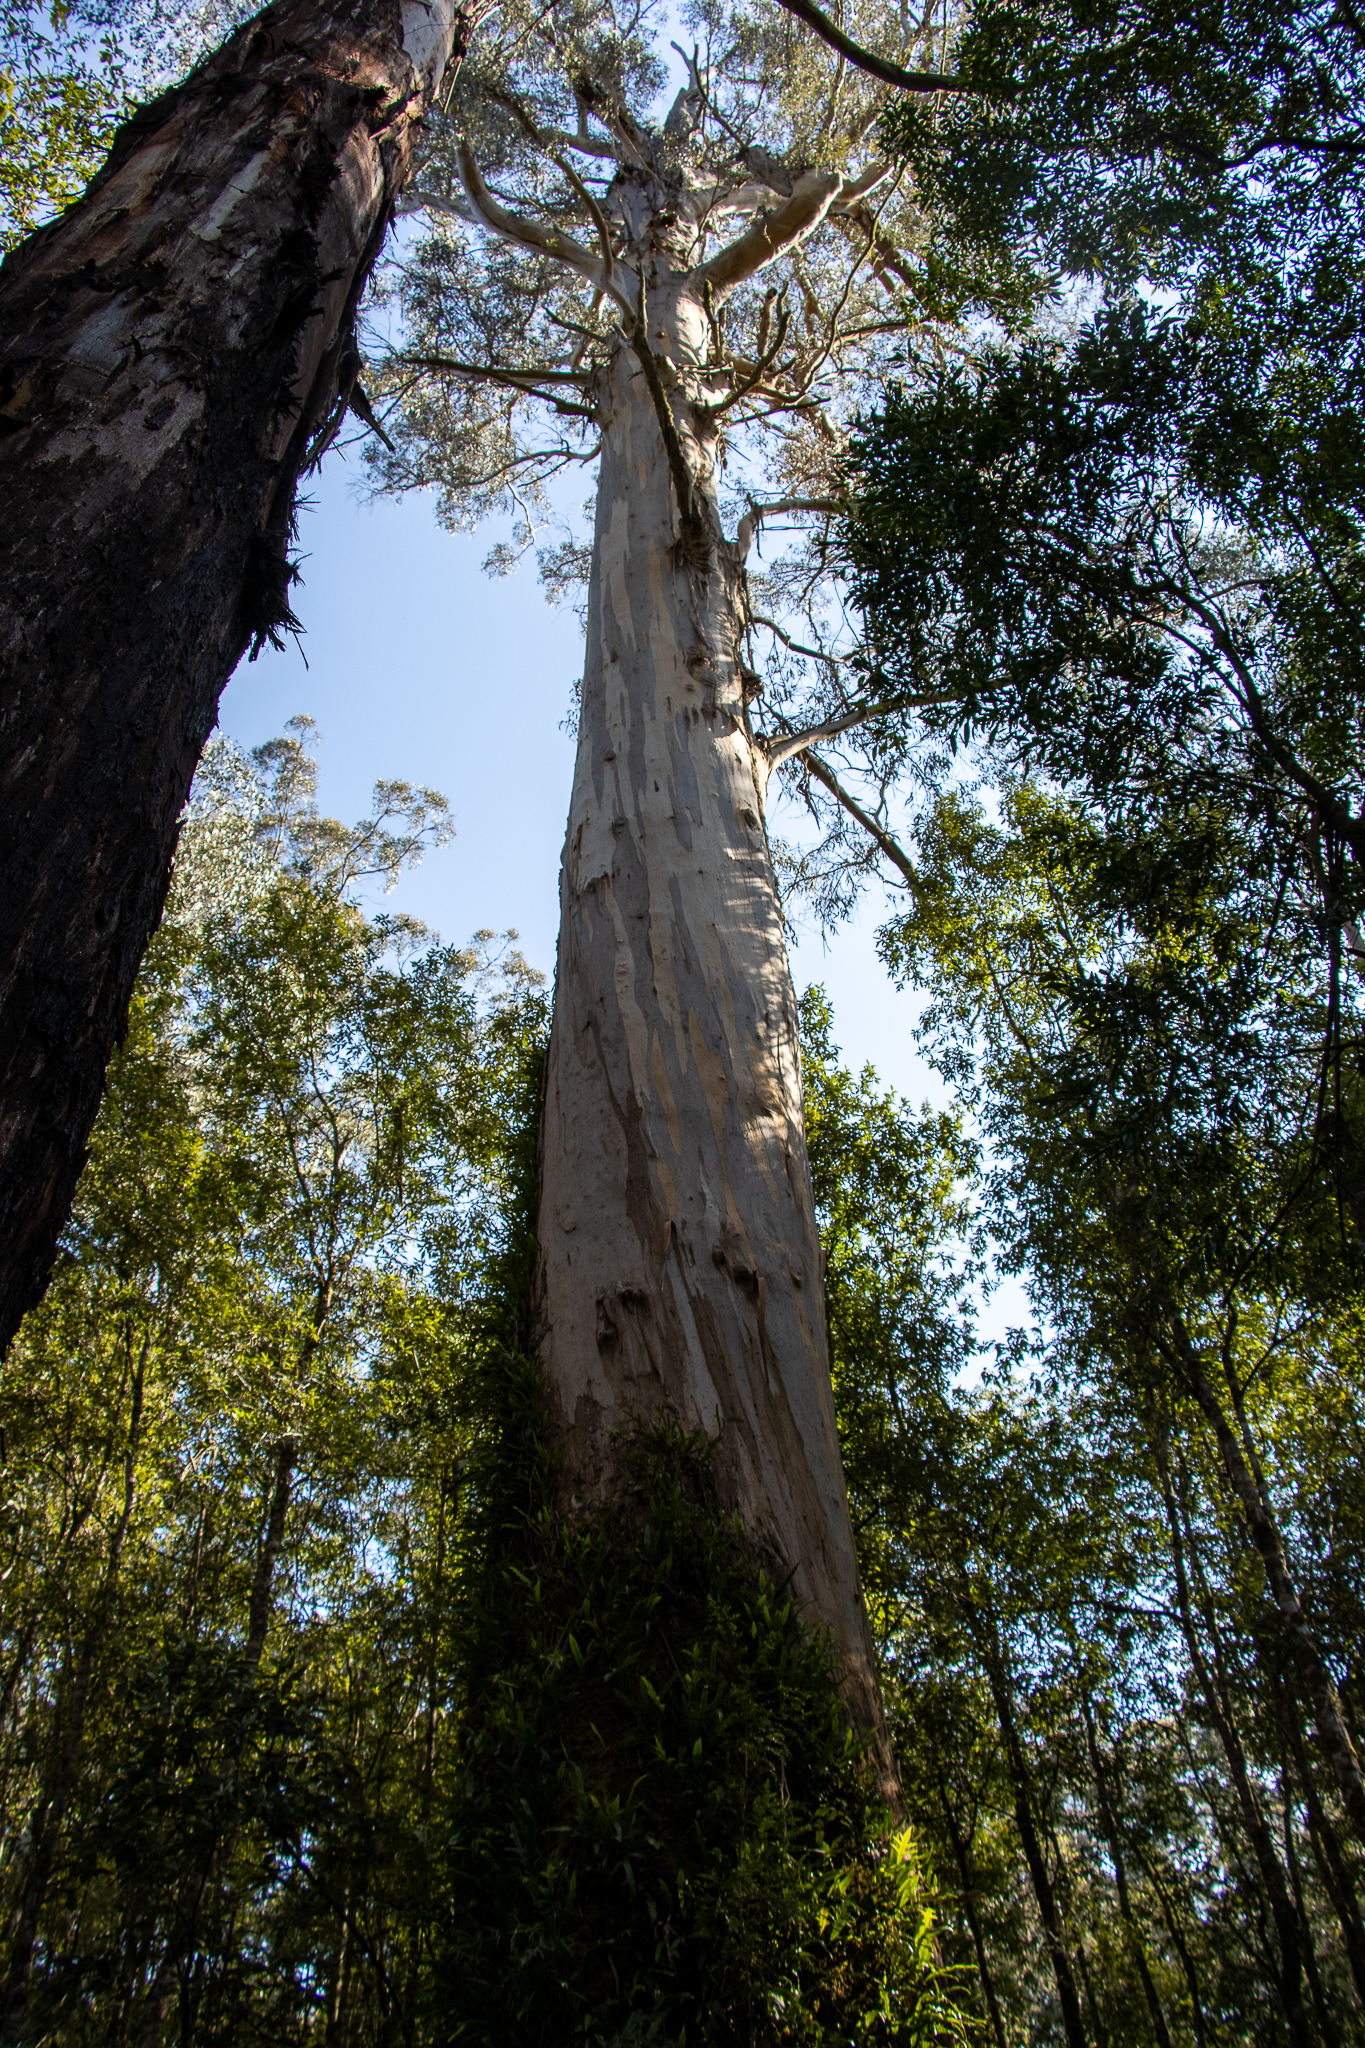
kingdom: Plantae
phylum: Tracheophyta
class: Magnoliopsida
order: Myrtales
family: Myrtaceae
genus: Eucalyptus
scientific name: Eucalyptus regnans
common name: Stringy gum
